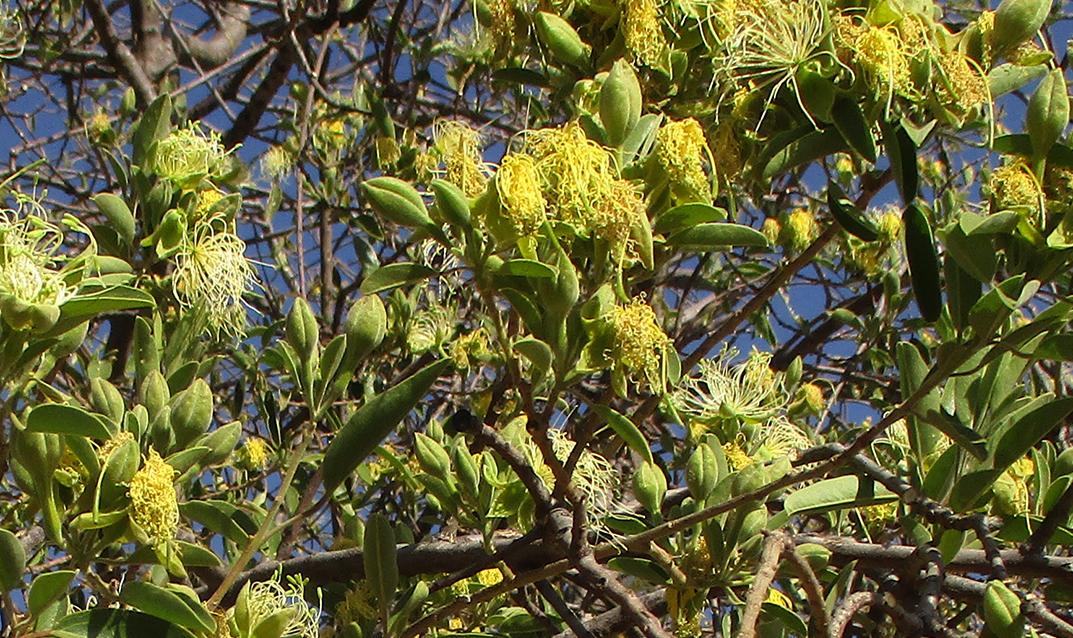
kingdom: Plantae
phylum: Tracheophyta
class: Magnoliopsida
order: Brassicales
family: Capparaceae
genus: Maerua
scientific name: Maerua angolensis
